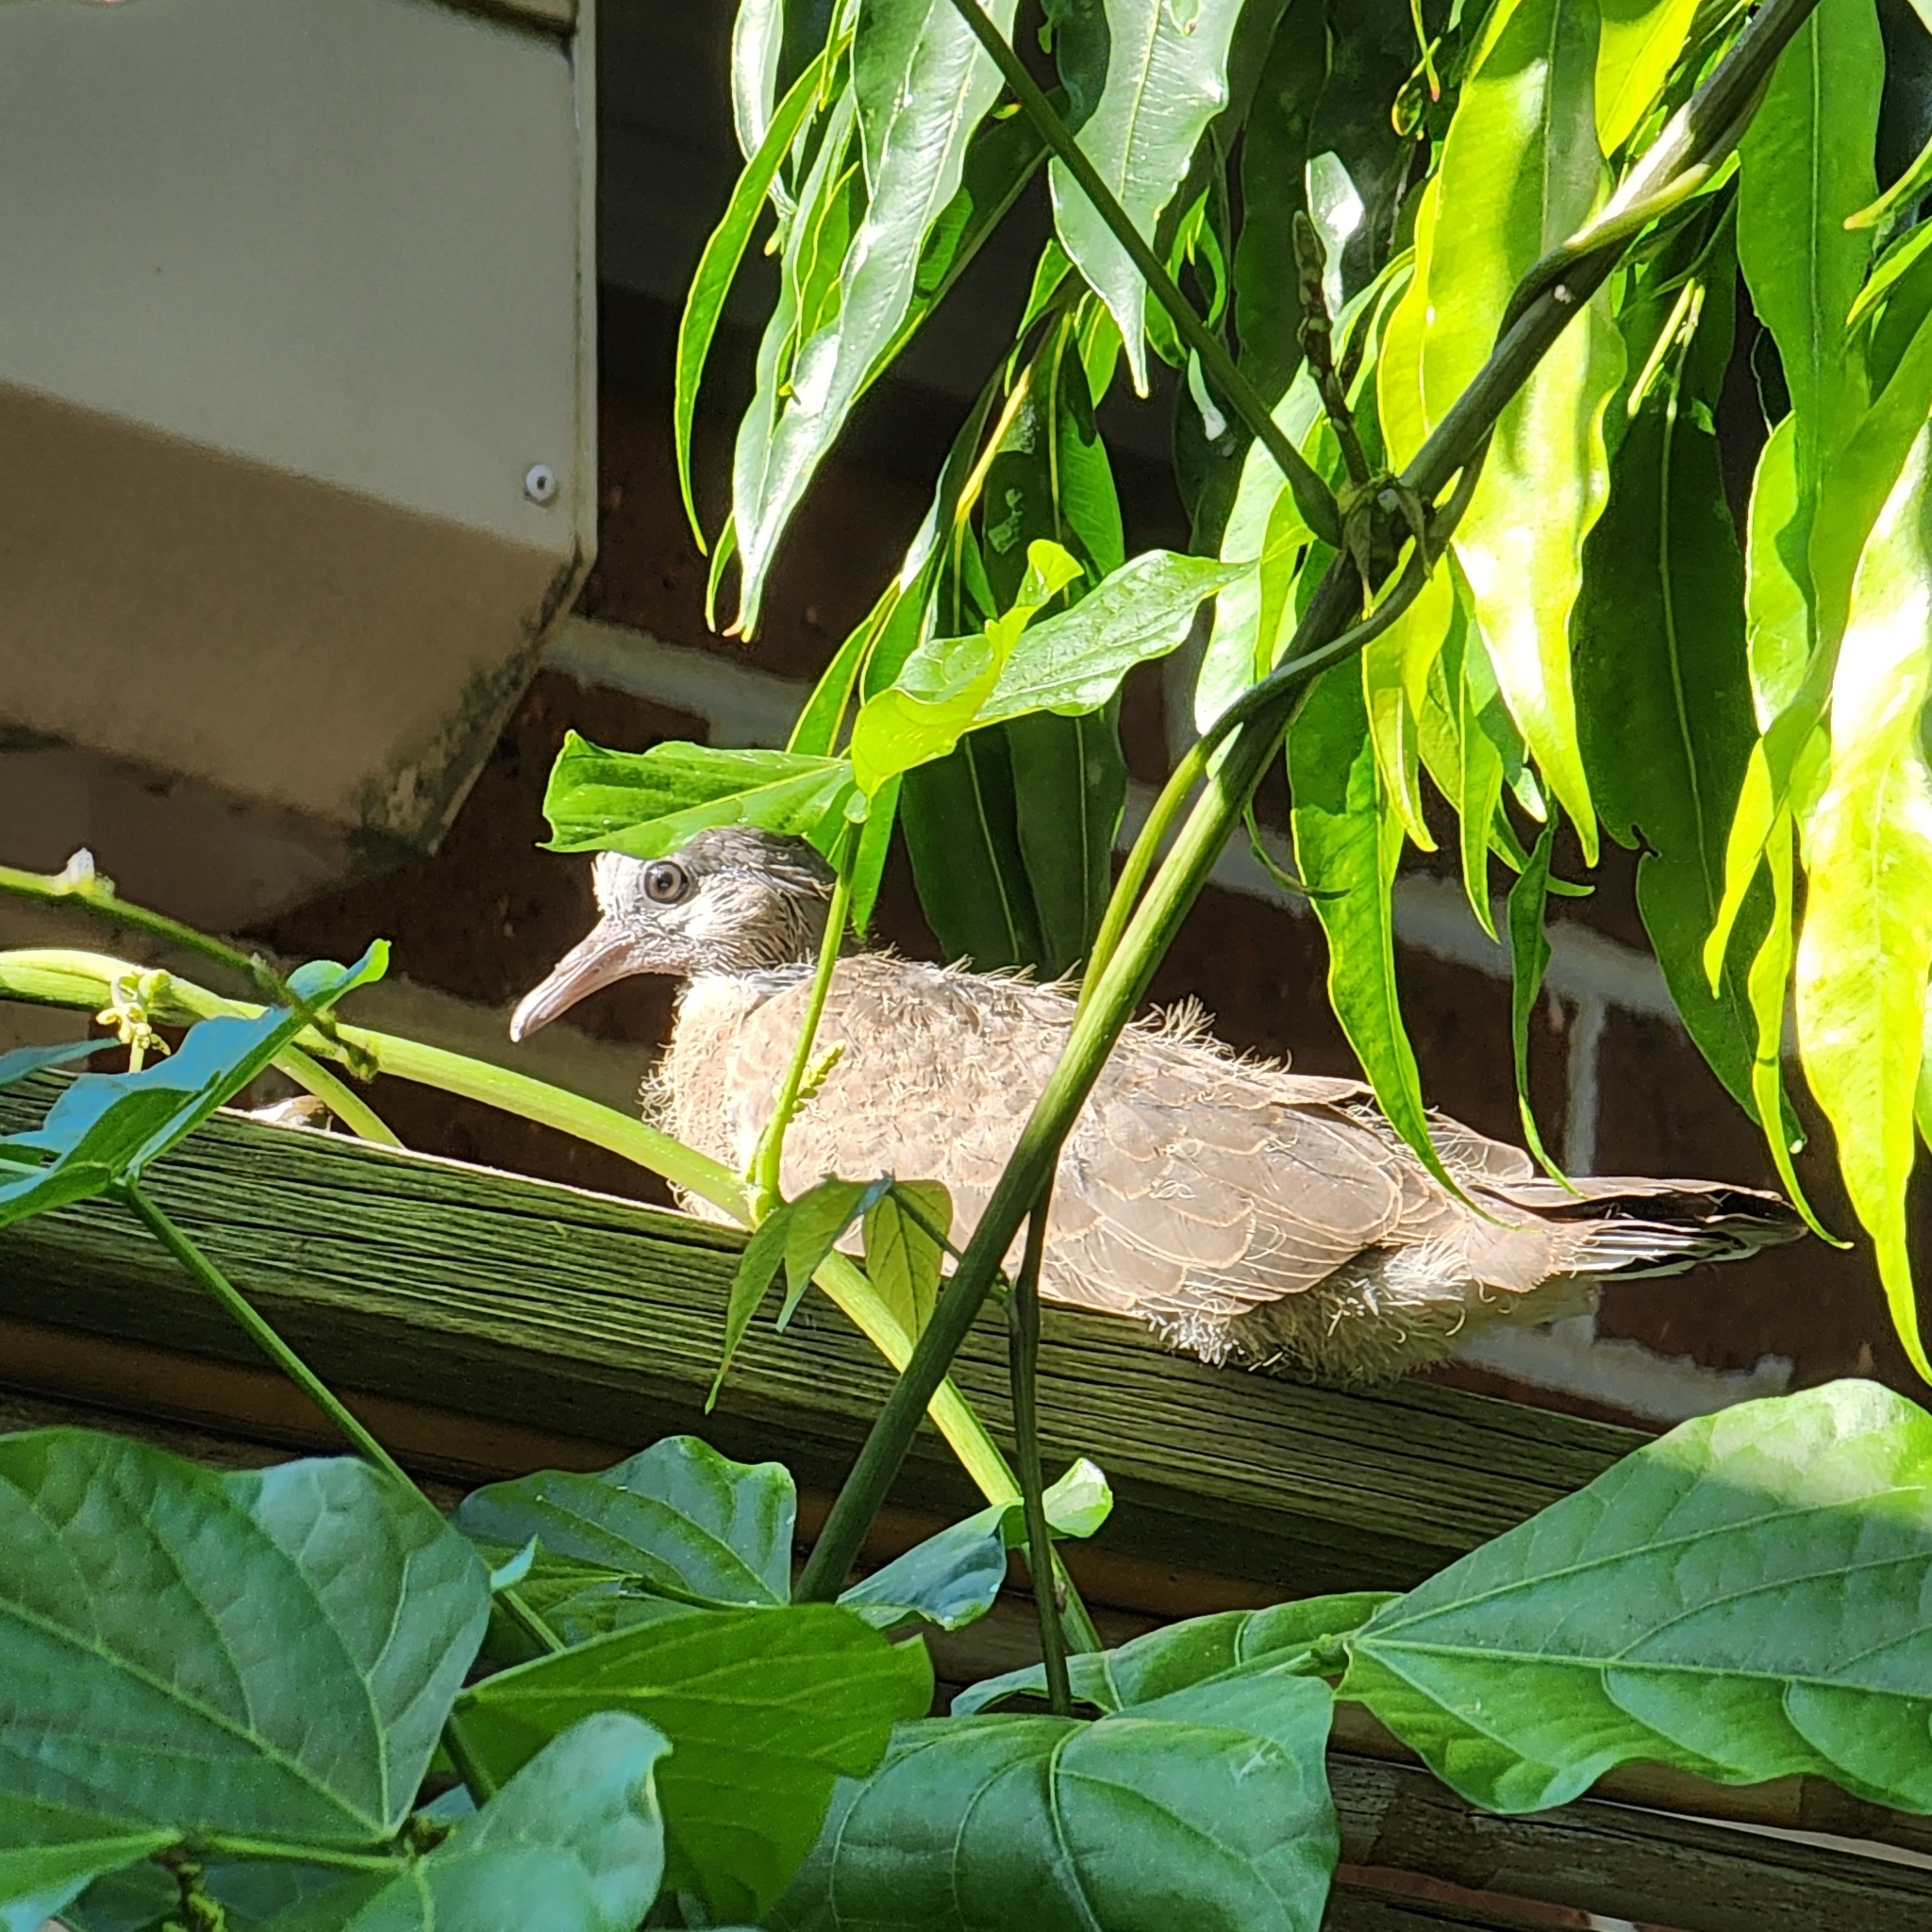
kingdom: Animalia
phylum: Chordata
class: Aves
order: Columbiformes
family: Columbidae
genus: Spilopelia
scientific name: Spilopelia chinensis
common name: Spotted dove
